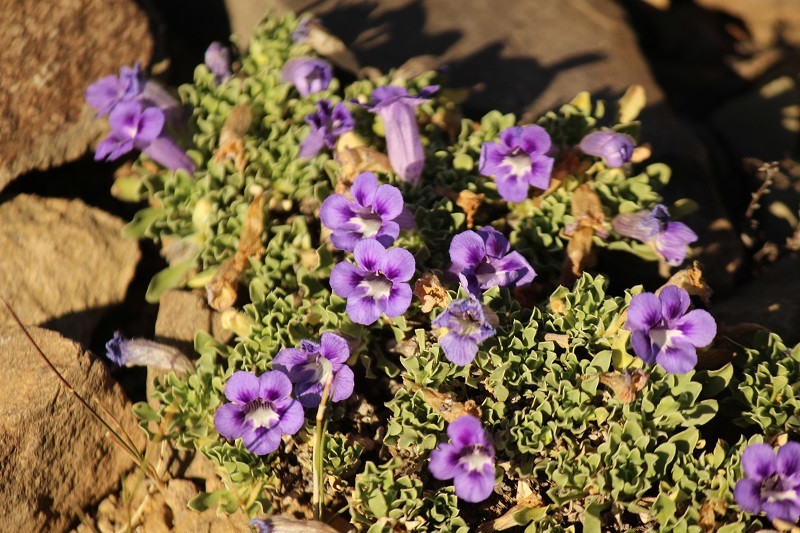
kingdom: Plantae
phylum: Tracheophyta
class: Magnoliopsida
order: Lamiales
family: Scrophulariaceae
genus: Aptosimum
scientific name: Aptosimum procumbens
